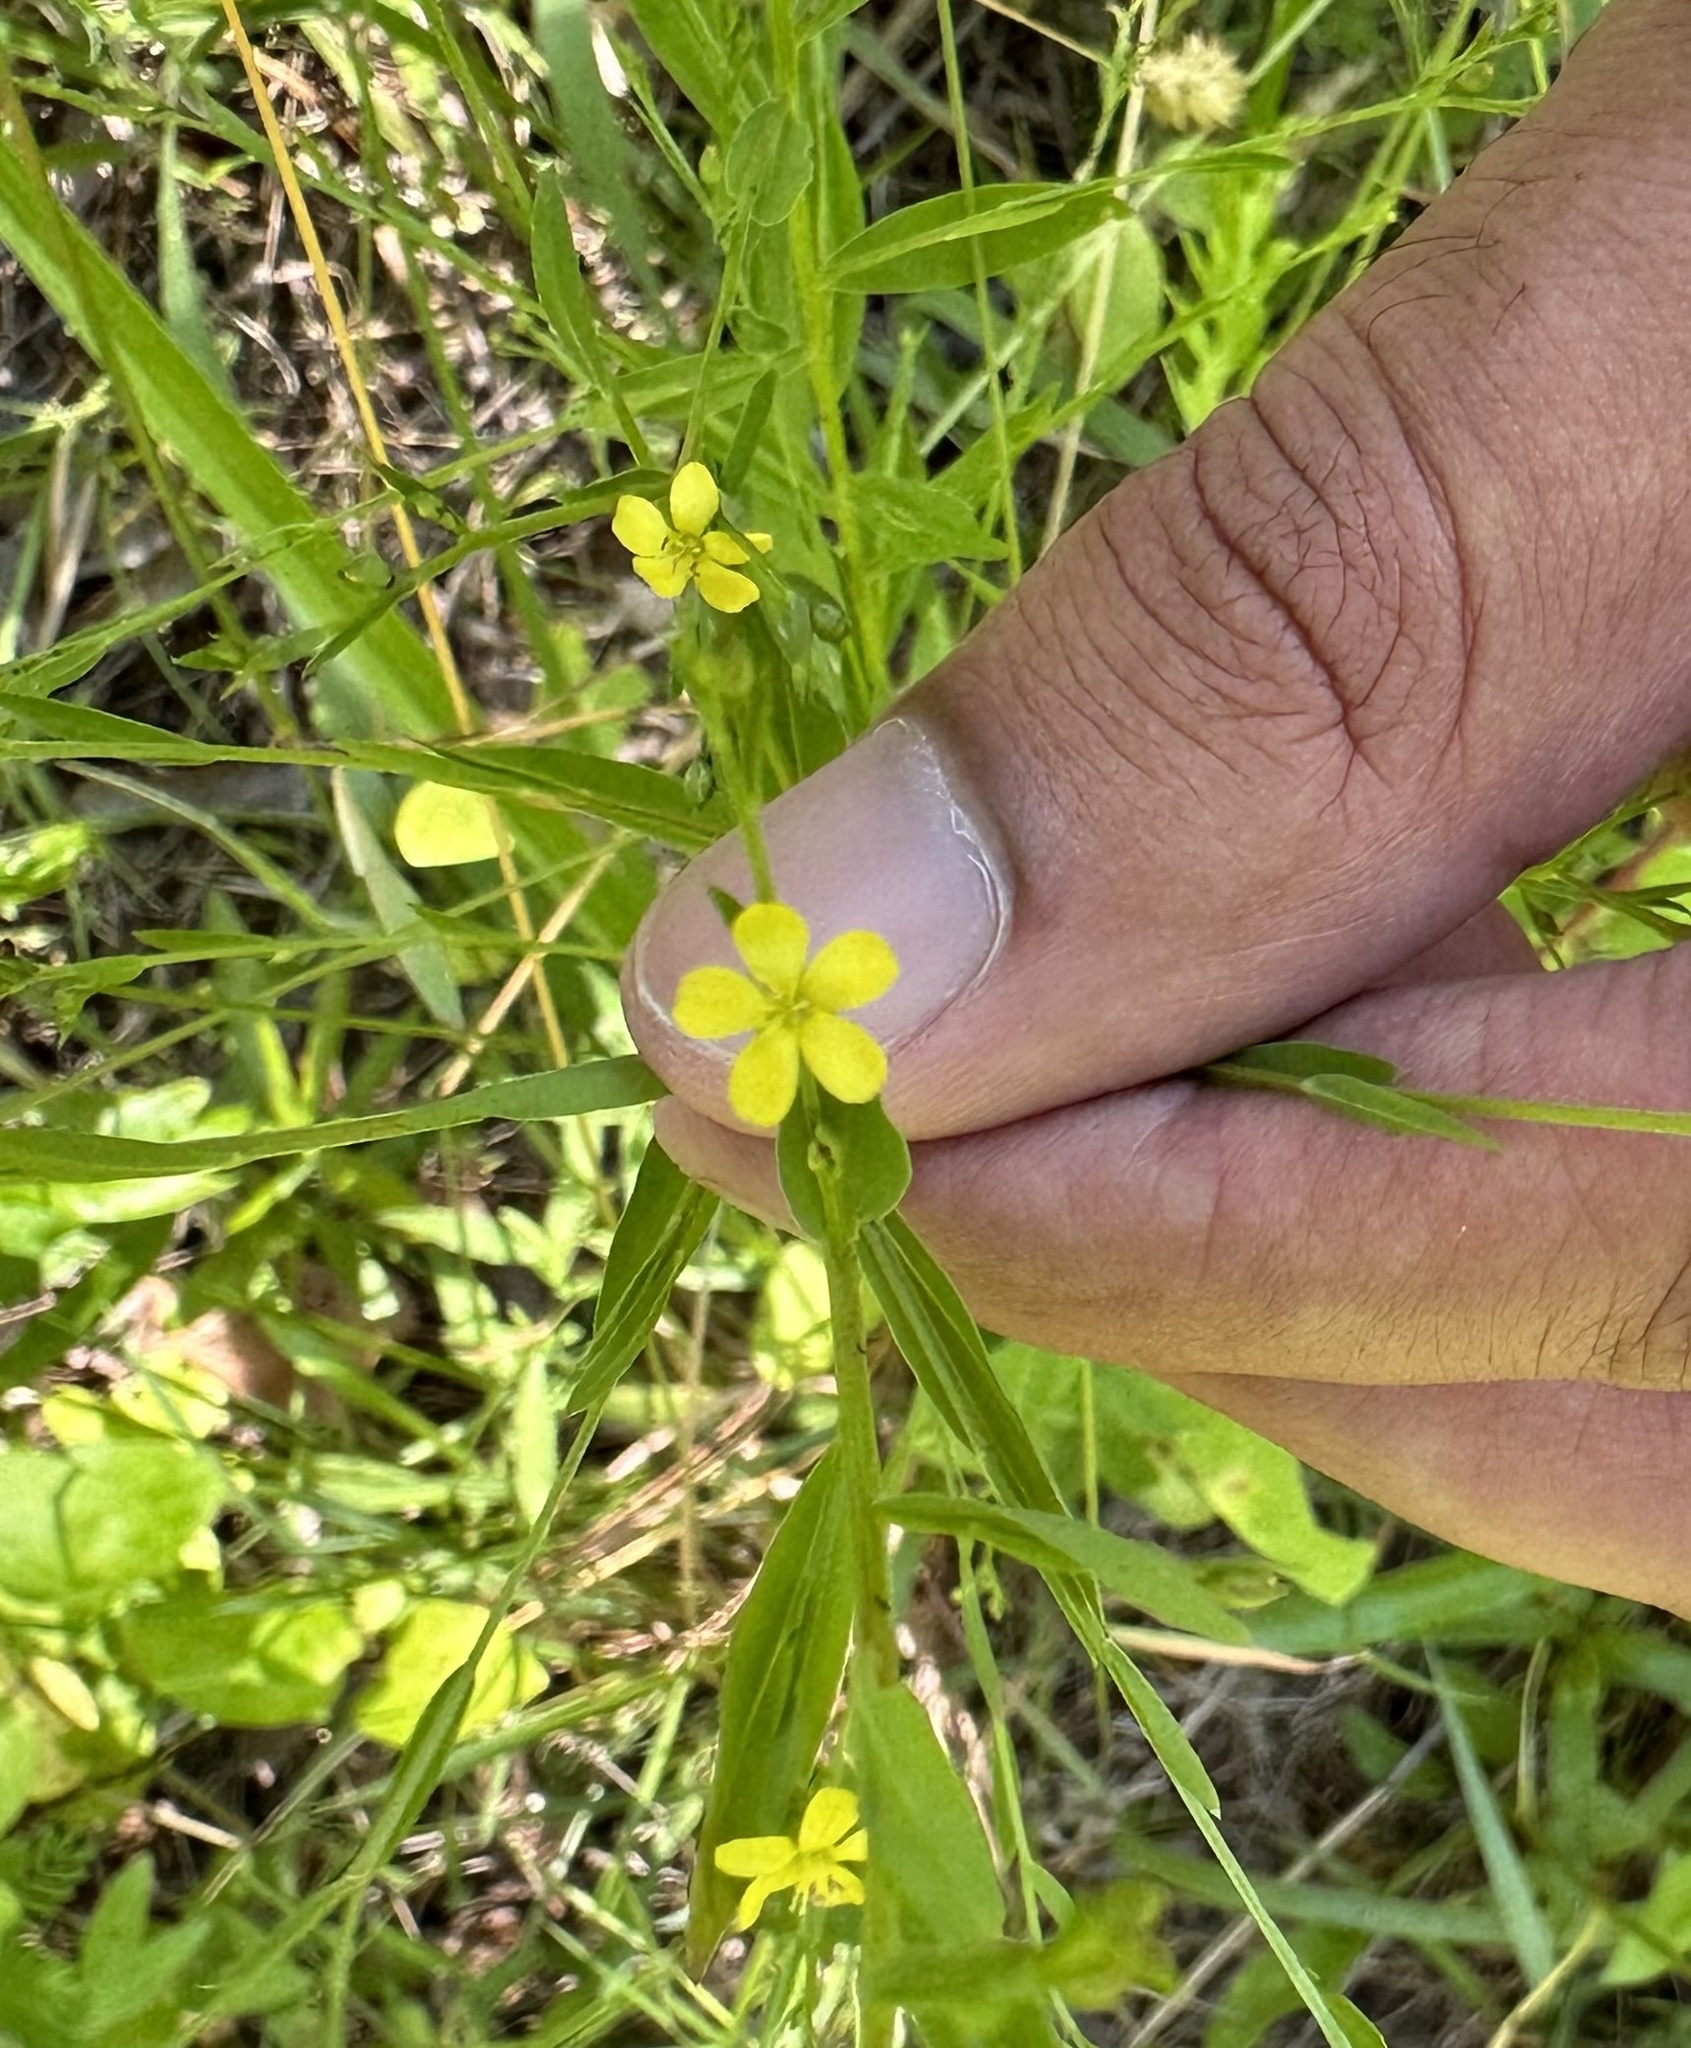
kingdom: Plantae
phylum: Tracheophyta
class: Magnoliopsida
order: Malpighiales
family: Linaceae
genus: Linum
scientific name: Linum striatum
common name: Ridged yellow flax
